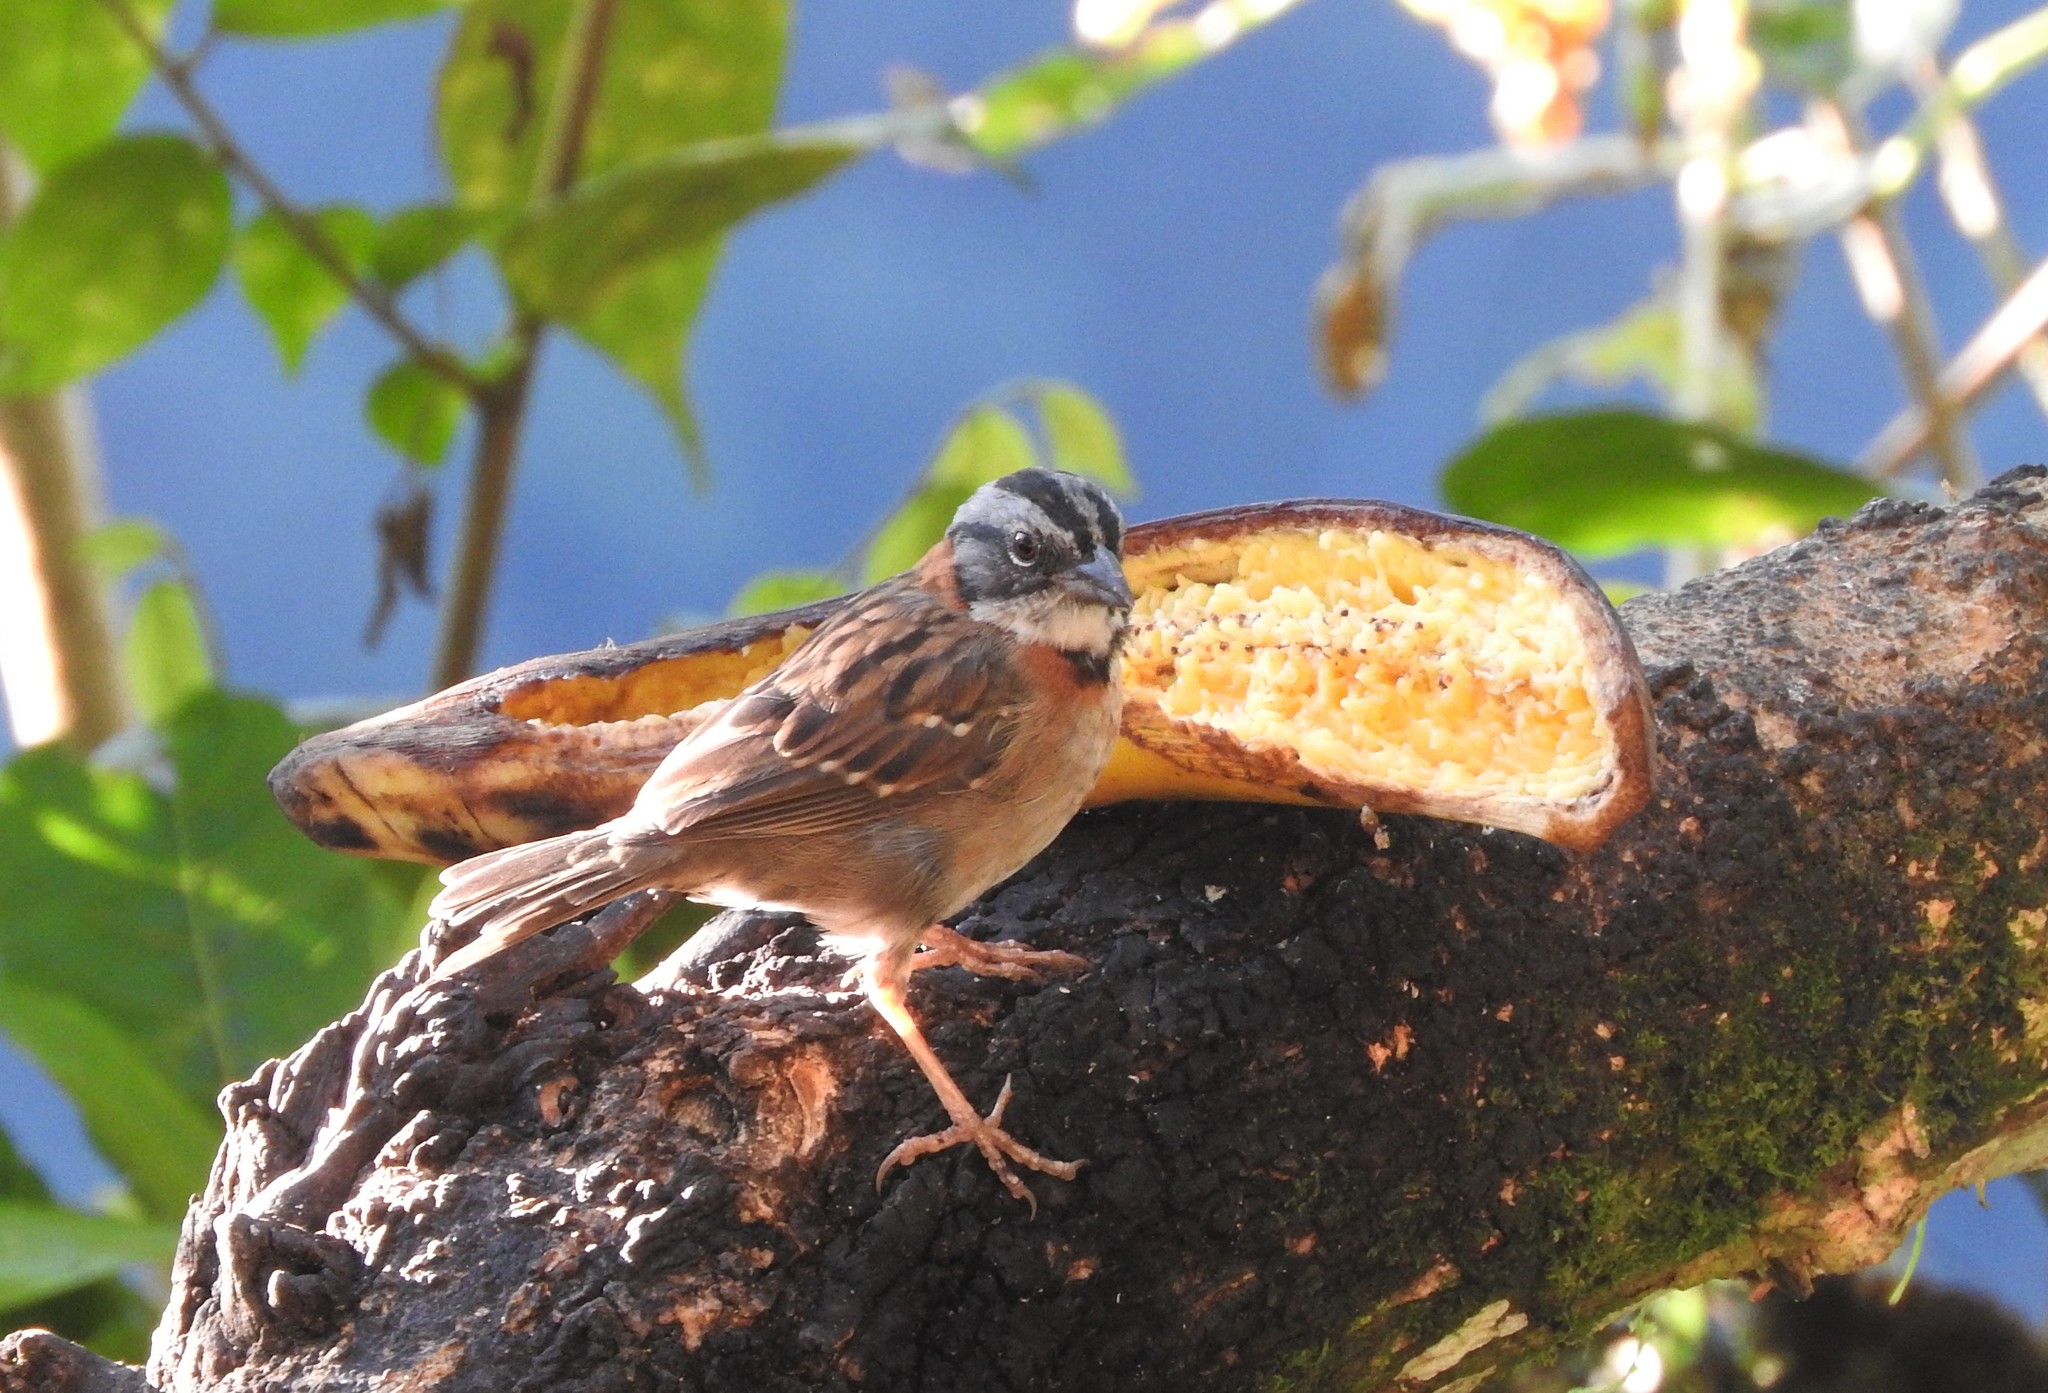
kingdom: Animalia
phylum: Chordata
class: Aves
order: Passeriformes
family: Passerellidae
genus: Zonotrichia
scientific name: Zonotrichia capensis
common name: Rufous-collared sparrow
